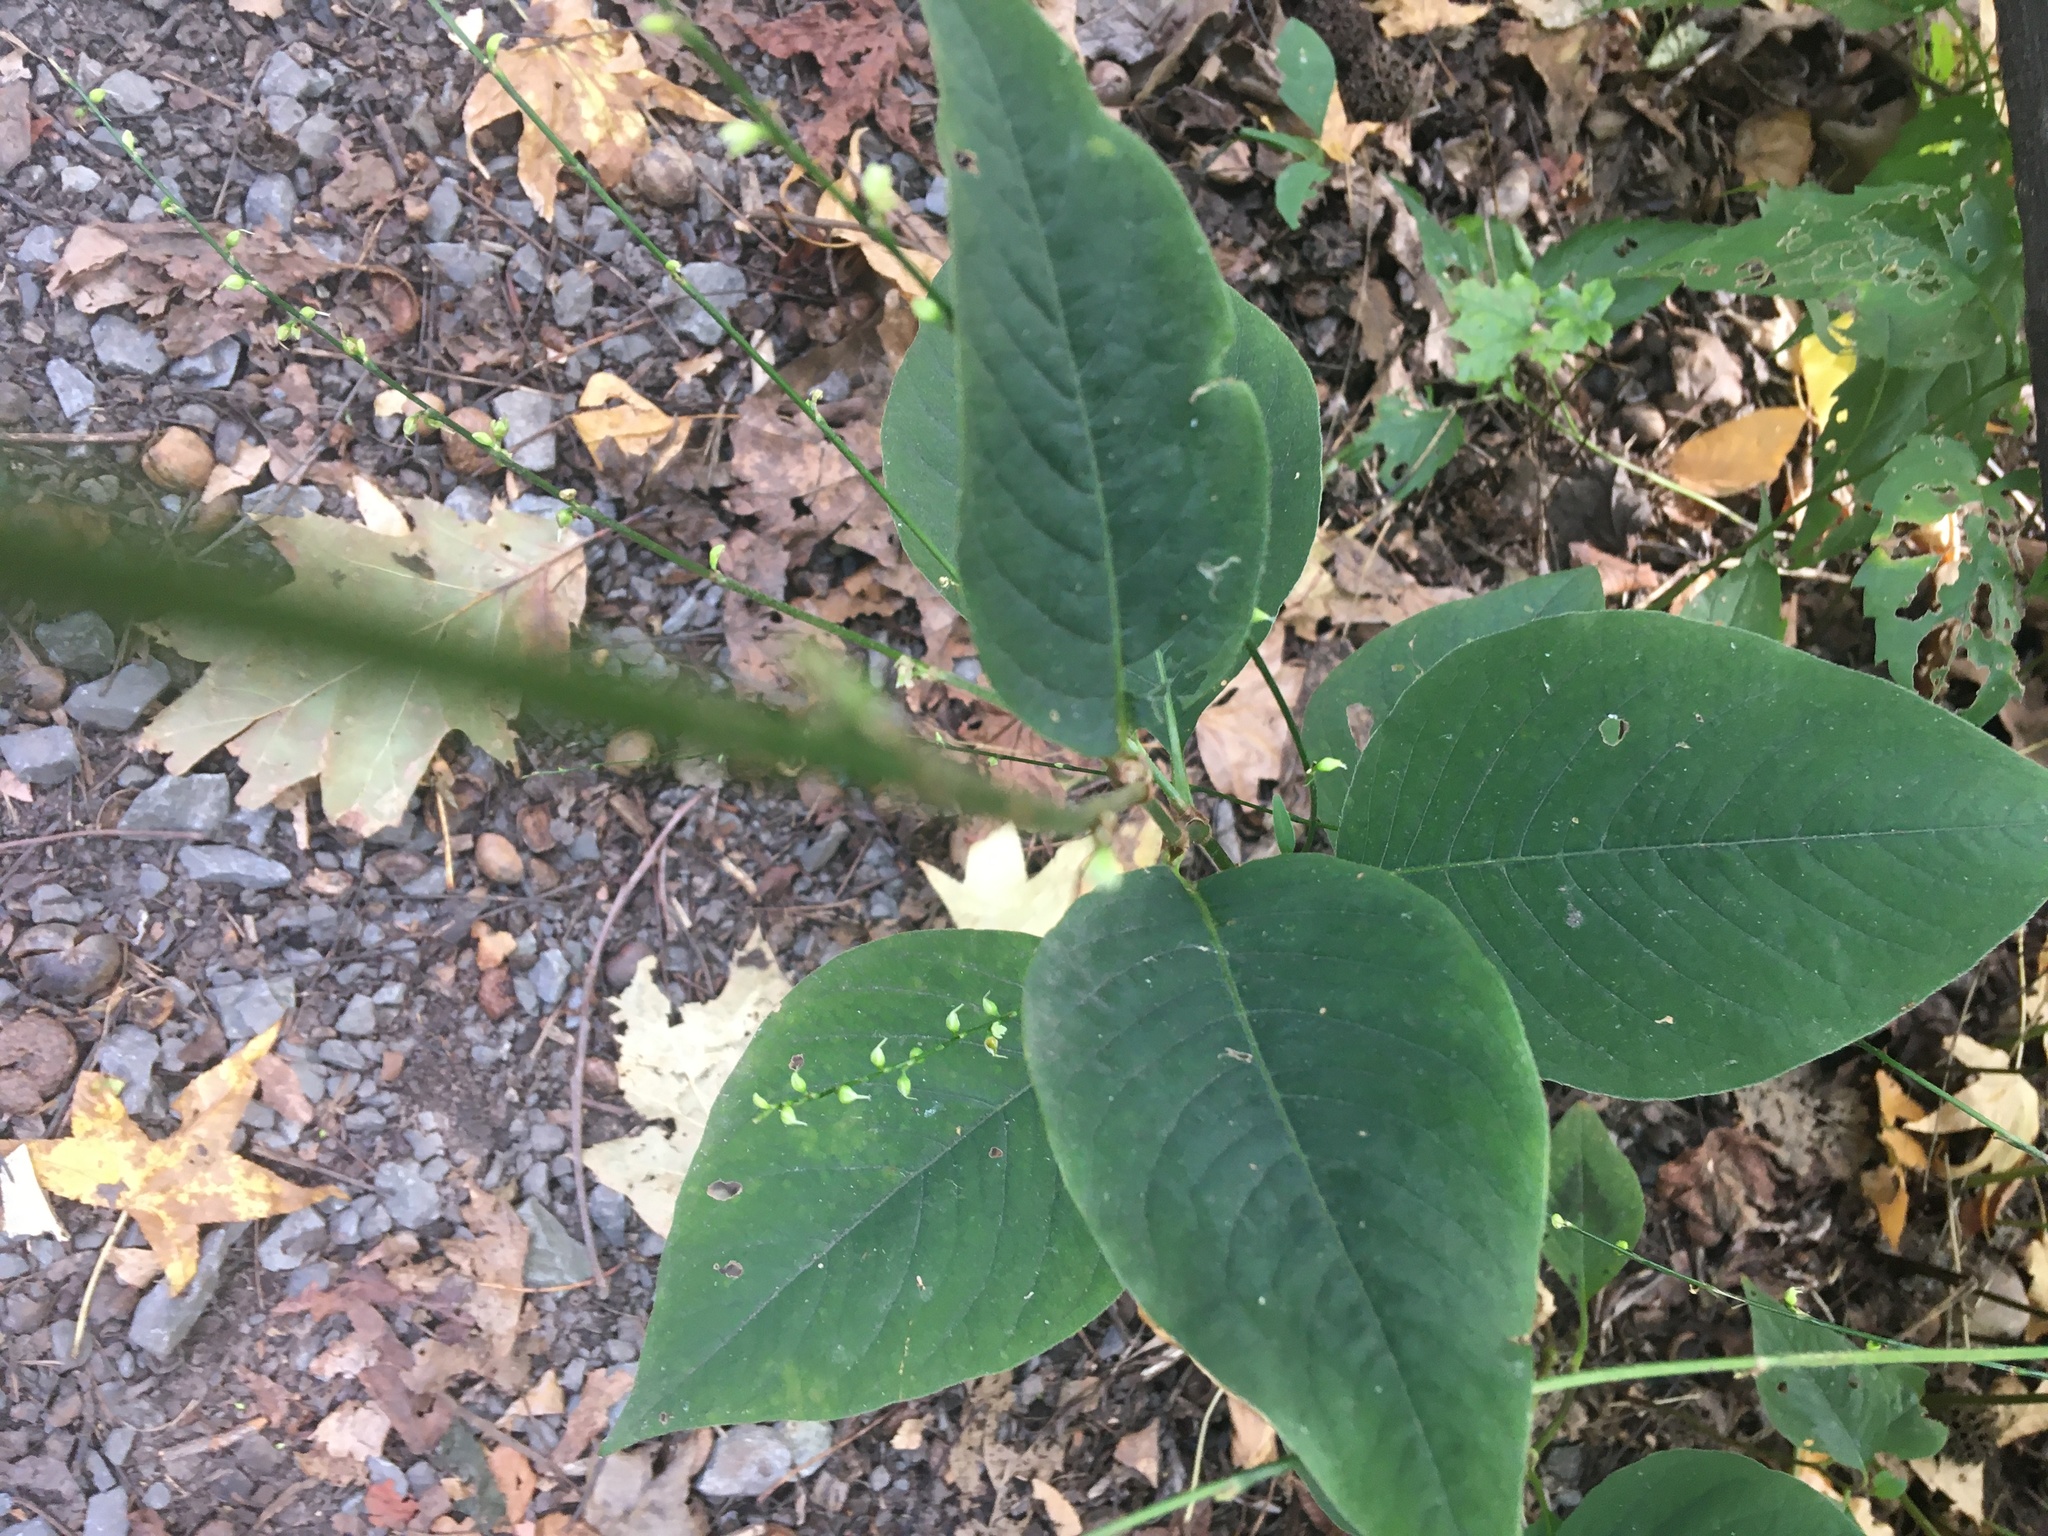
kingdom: Plantae
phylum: Tracheophyta
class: Magnoliopsida
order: Caryophyllales
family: Polygonaceae
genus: Persicaria
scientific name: Persicaria virginiana
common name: Jumpseed
